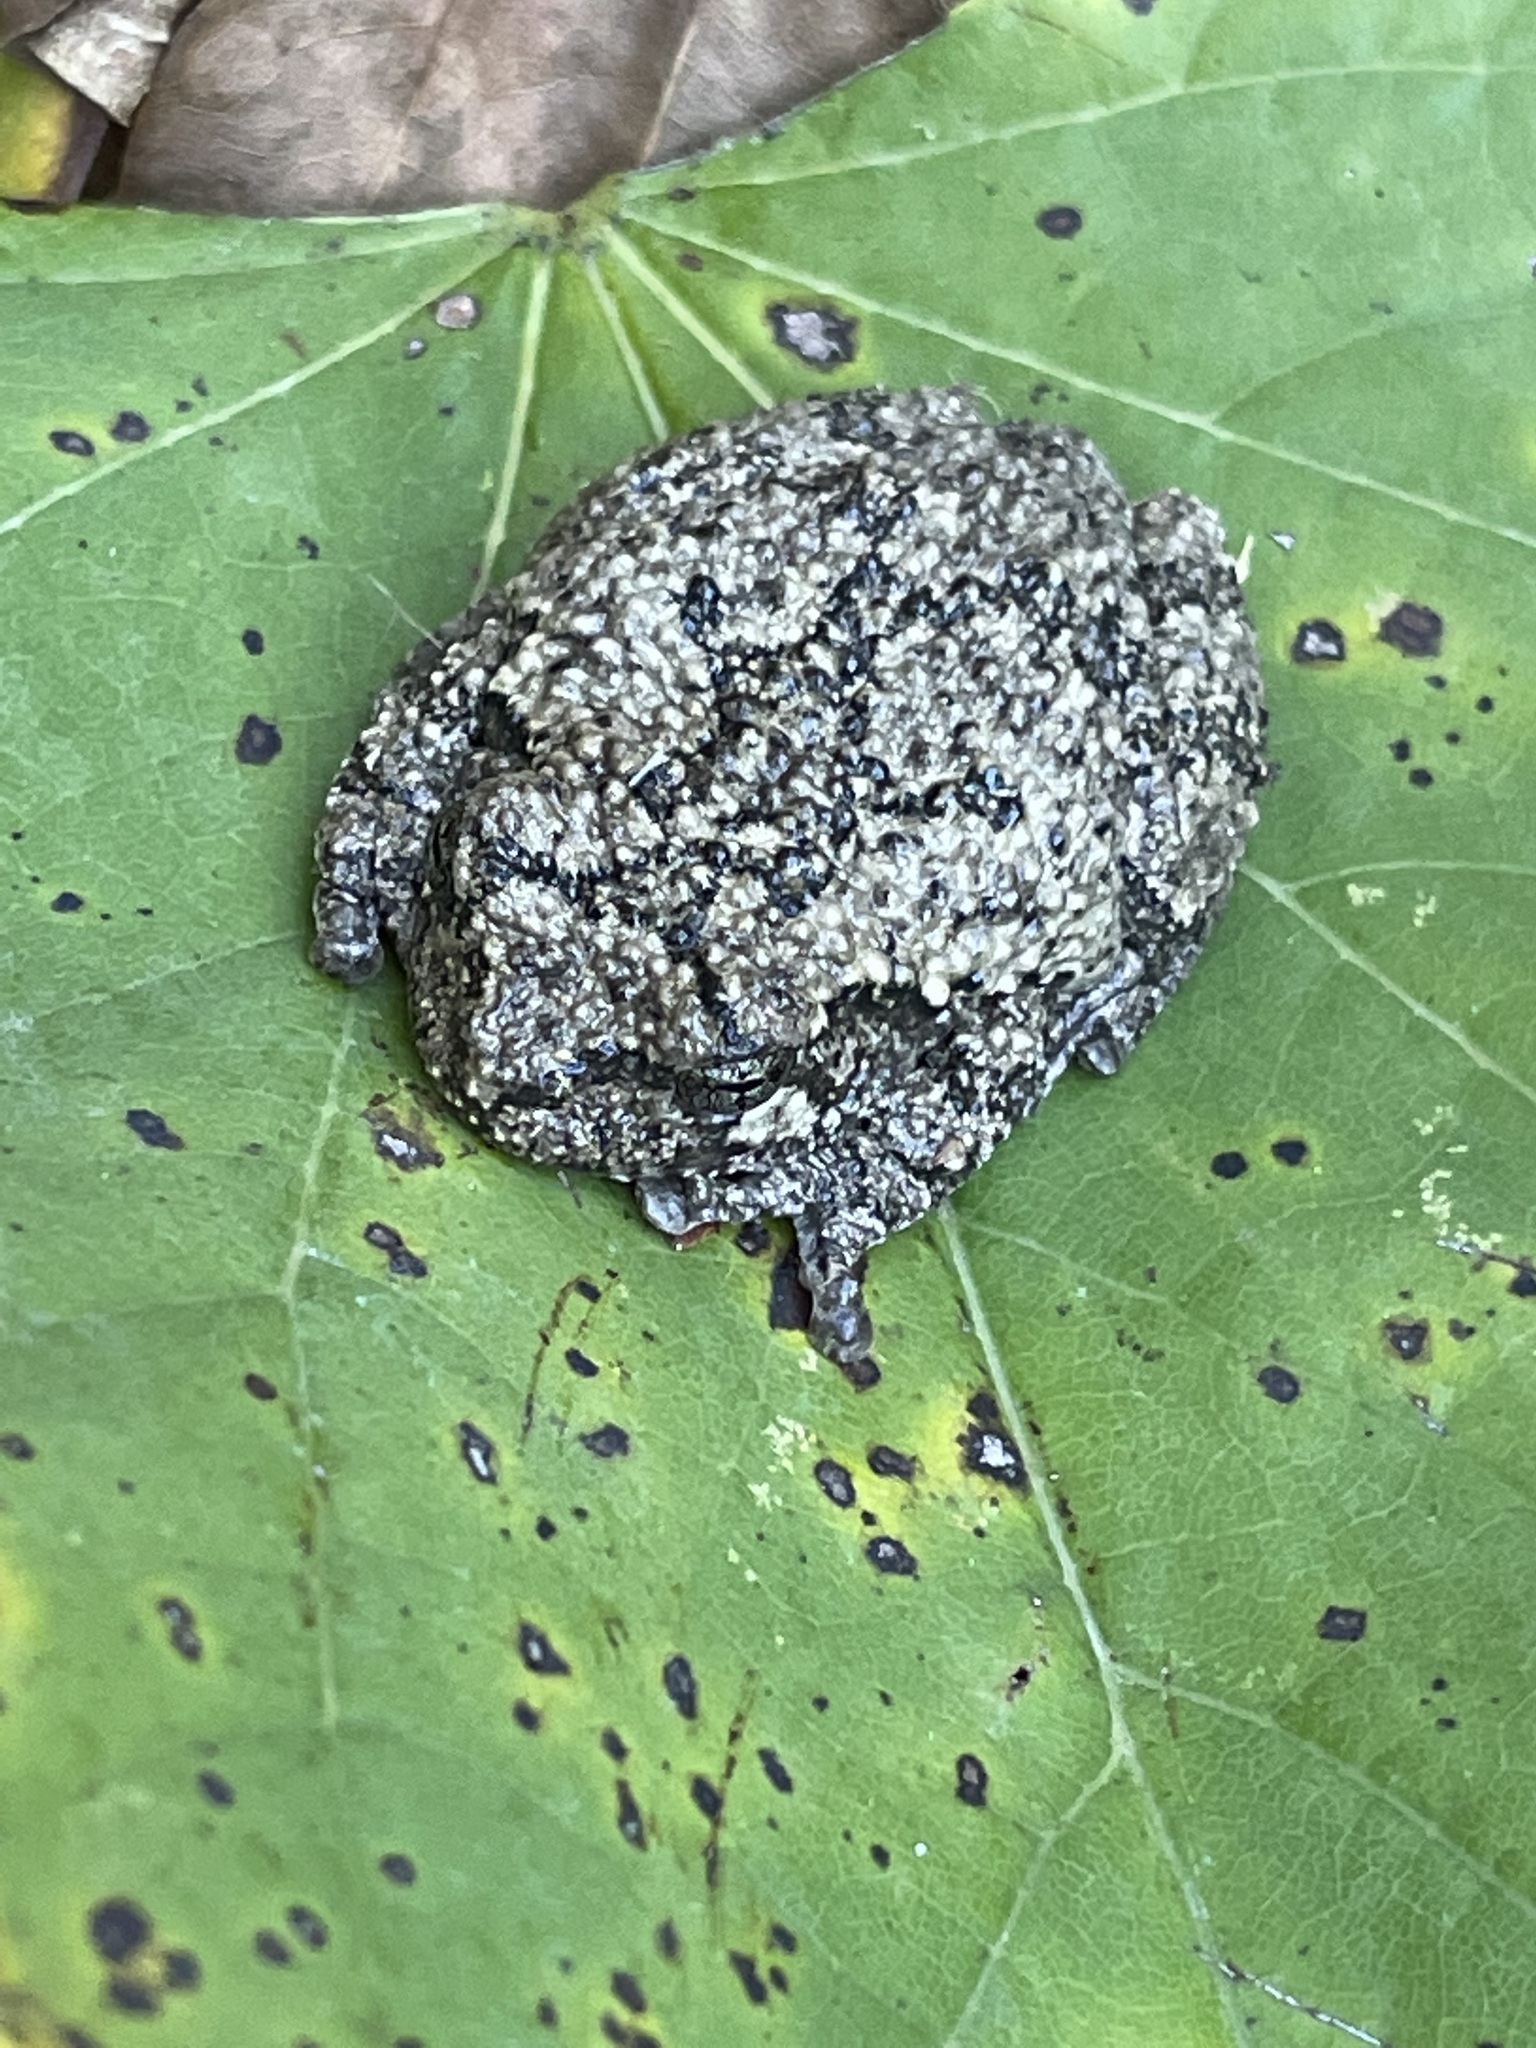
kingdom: Animalia
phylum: Chordata
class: Amphibia
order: Anura
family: Hylidae
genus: Dryophytes
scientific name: Dryophytes chrysoscelis
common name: Cope's gray treefrog
